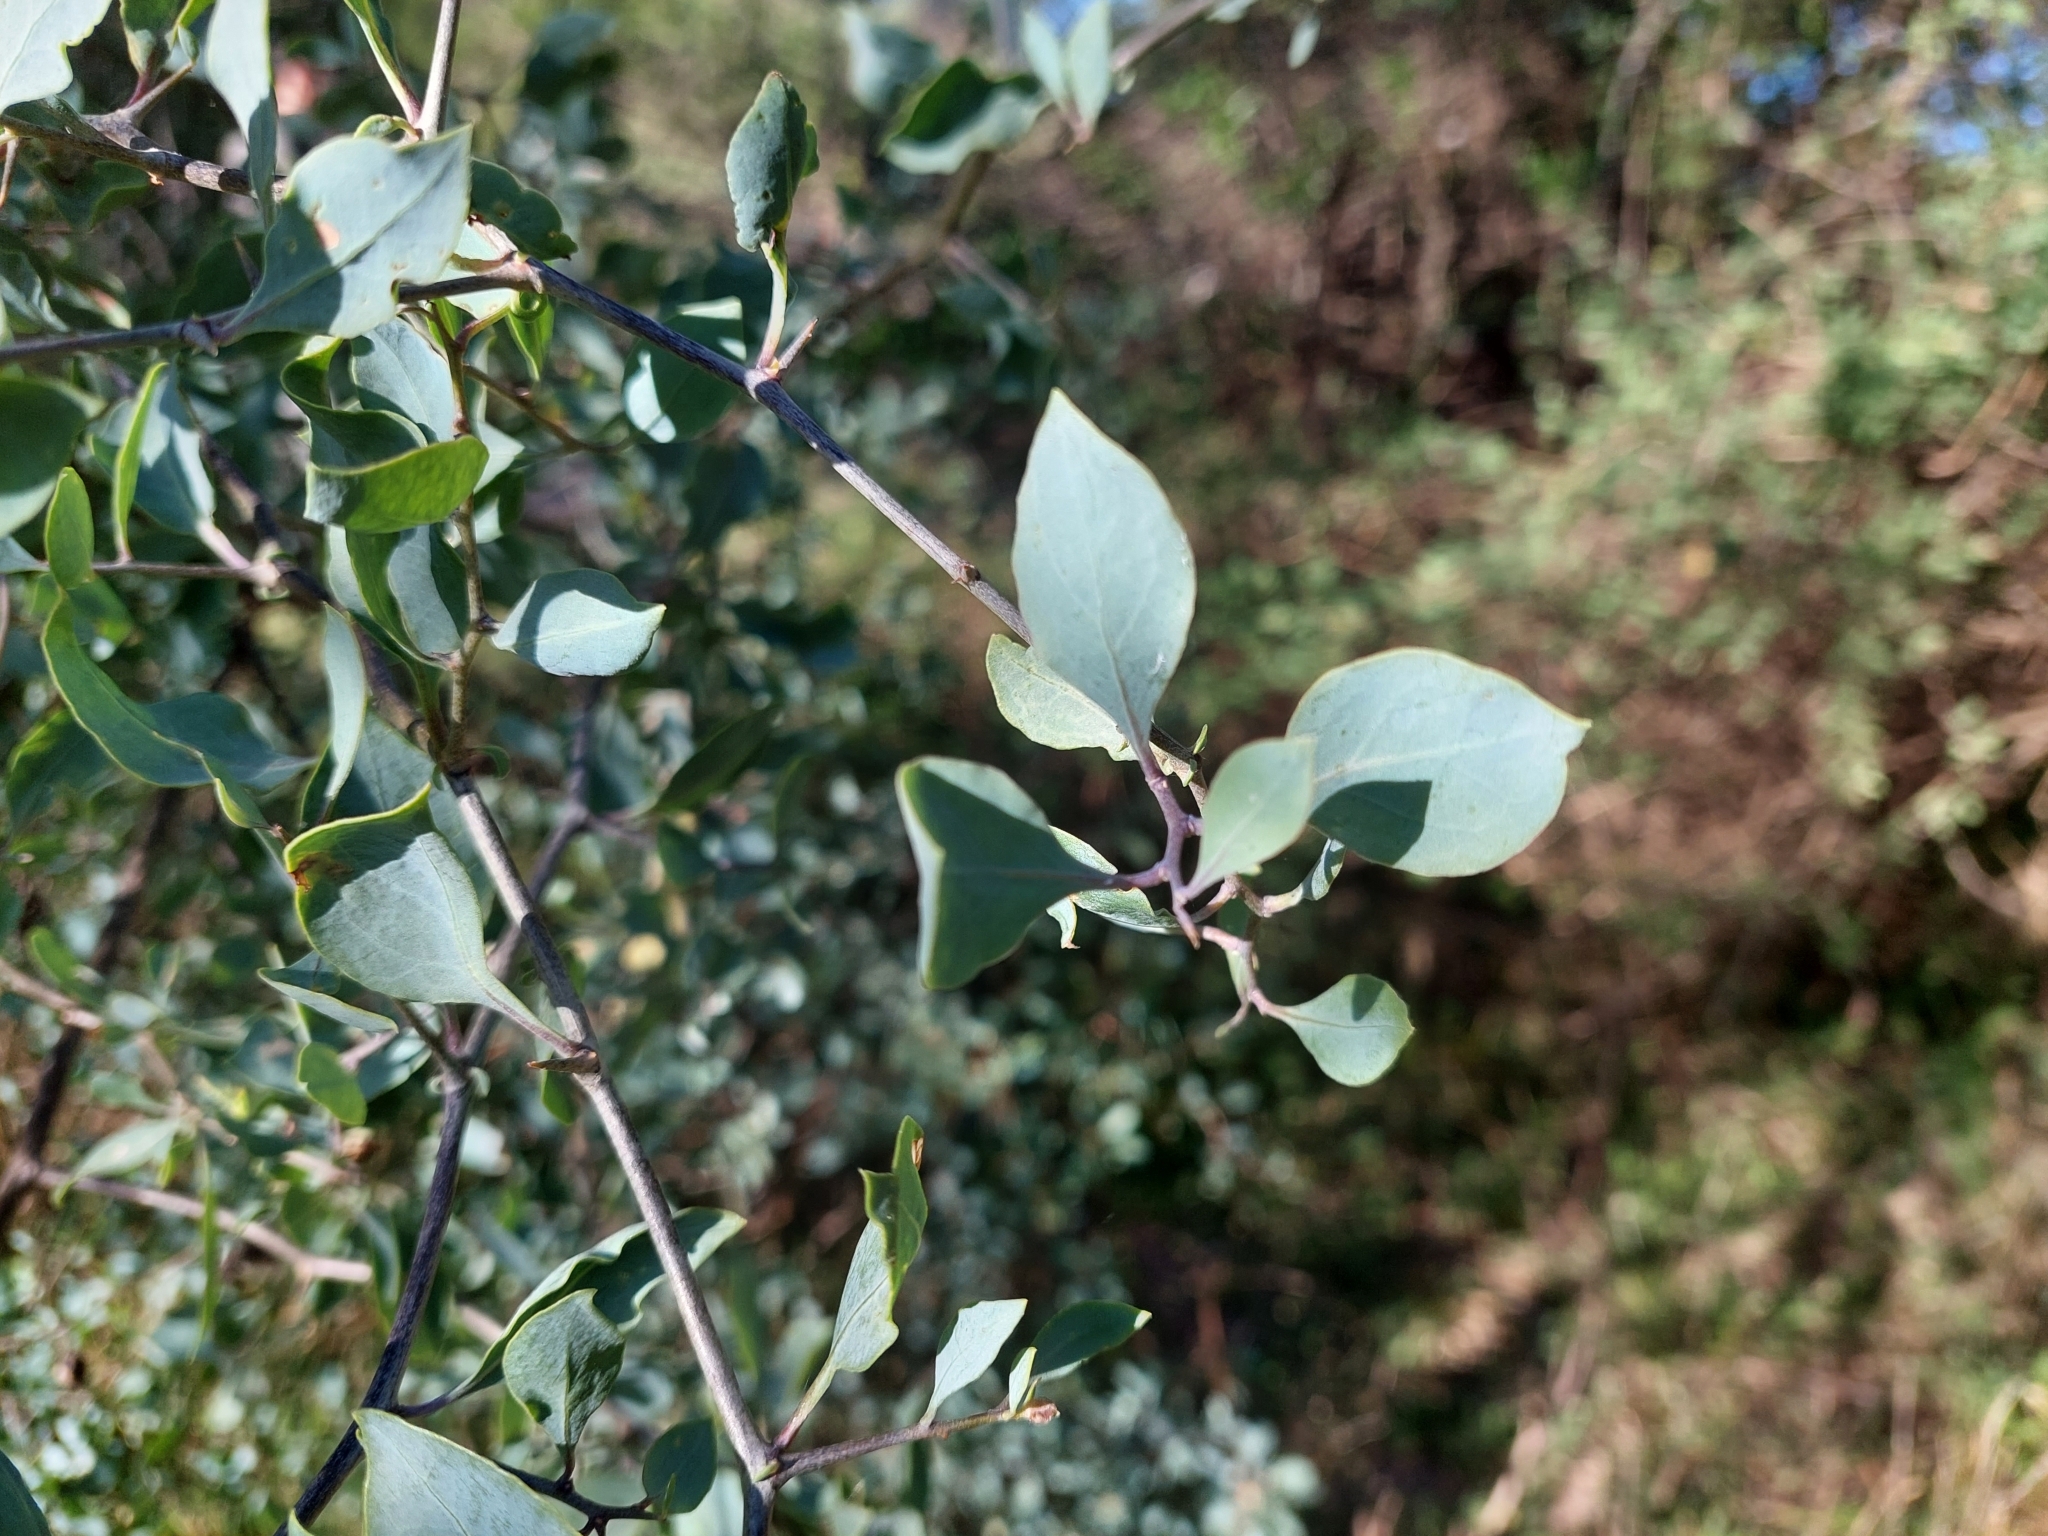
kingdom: Plantae
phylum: Tracheophyta
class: Magnoliopsida
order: Solanales
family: Solanaceae
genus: Lycium
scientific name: Lycium boerhaaviifolium
